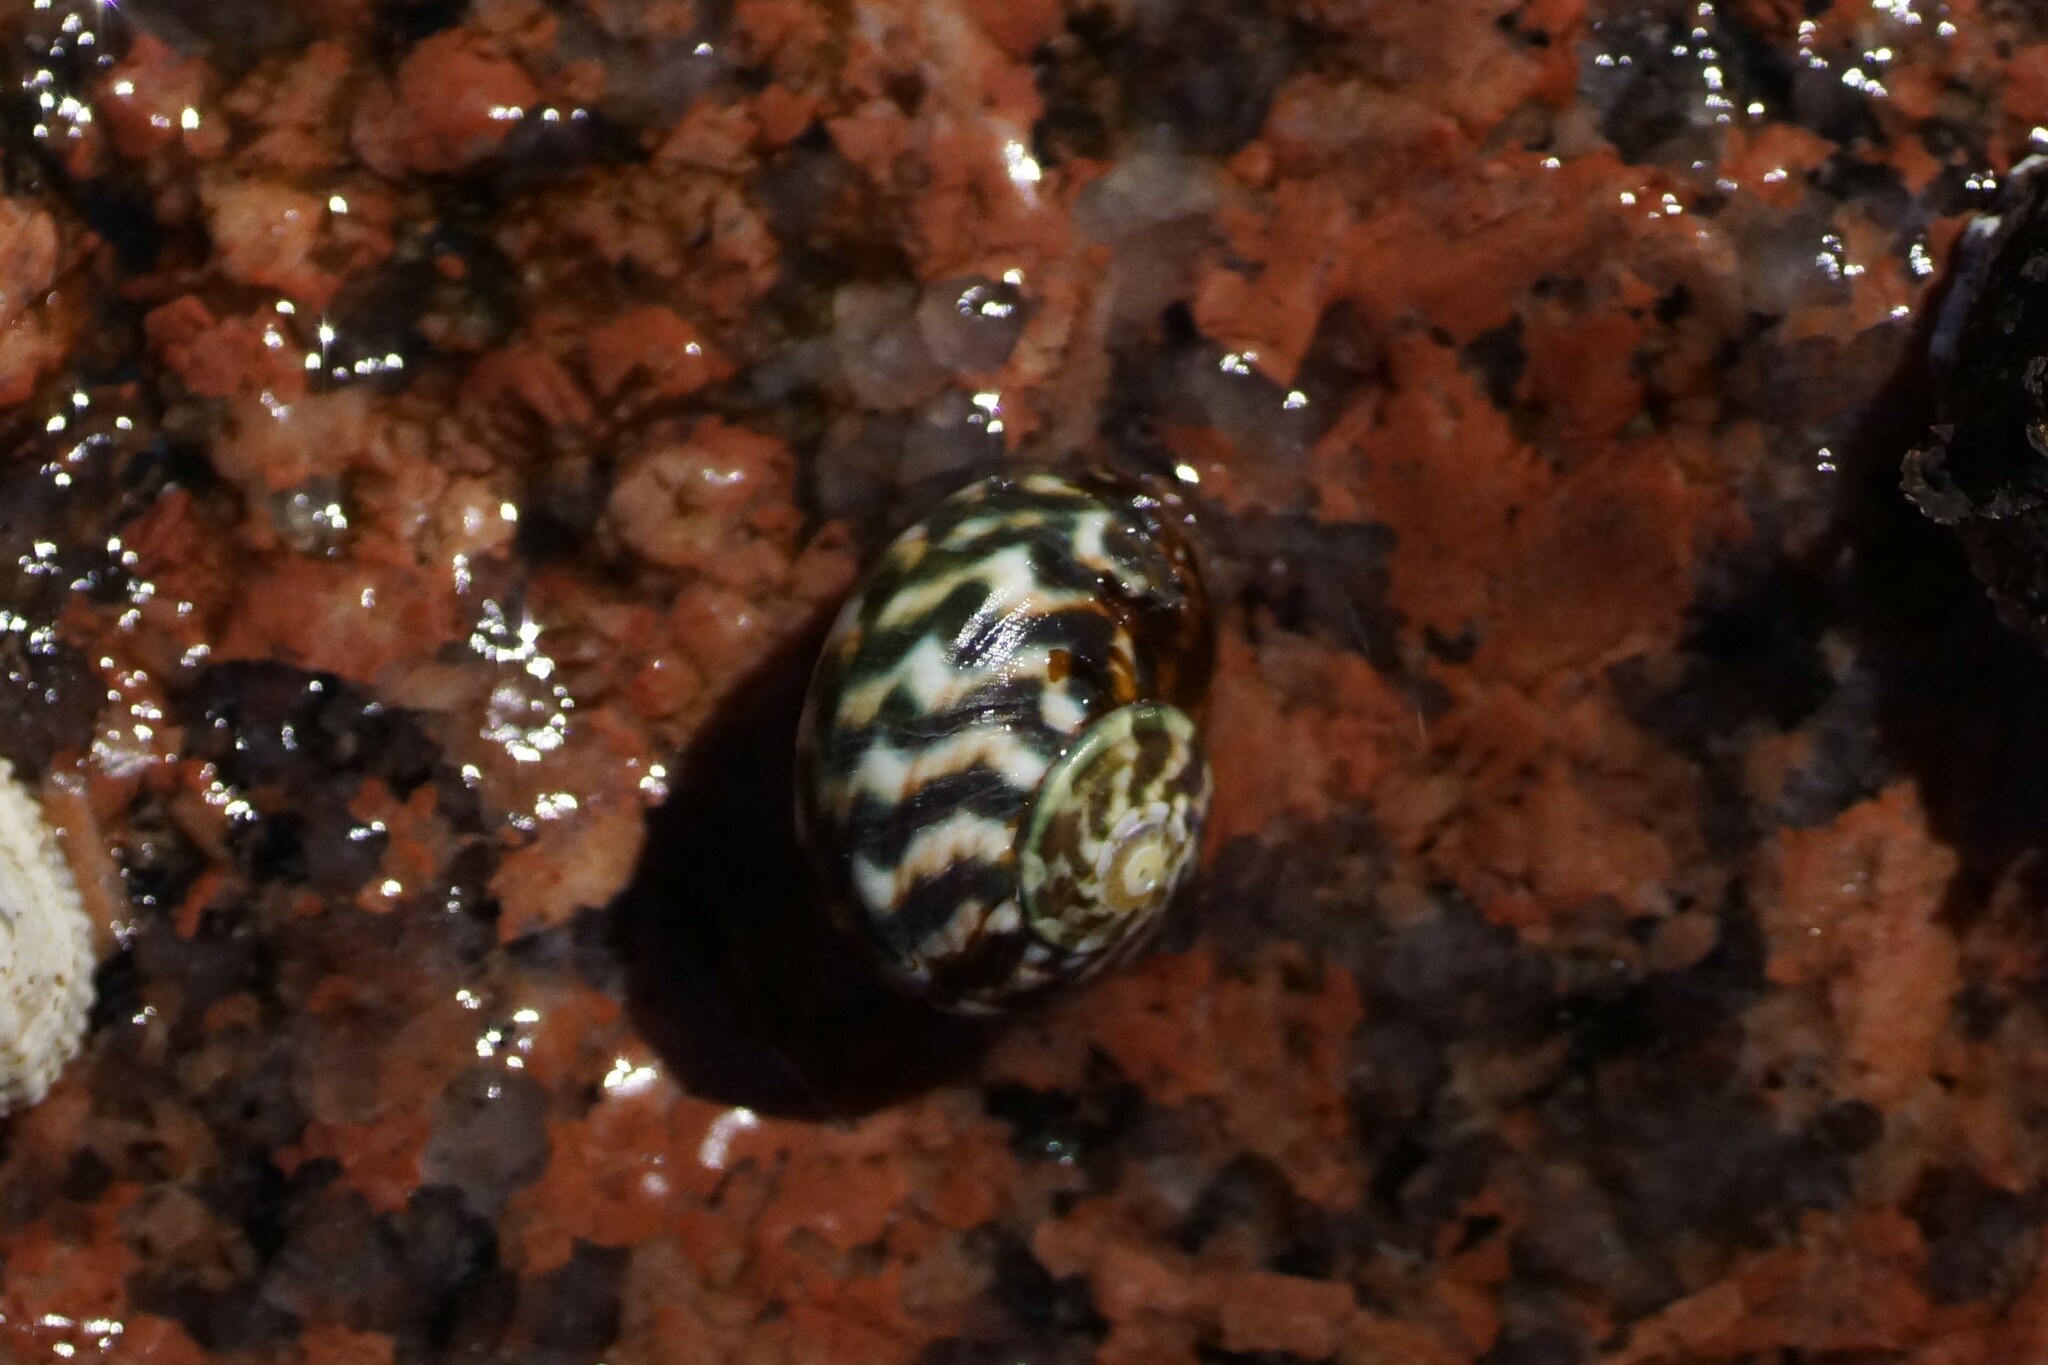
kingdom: Animalia
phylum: Mollusca
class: Gastropoda
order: Trochida
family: Turbinidae
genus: Lunella
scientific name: Lunella undulata
